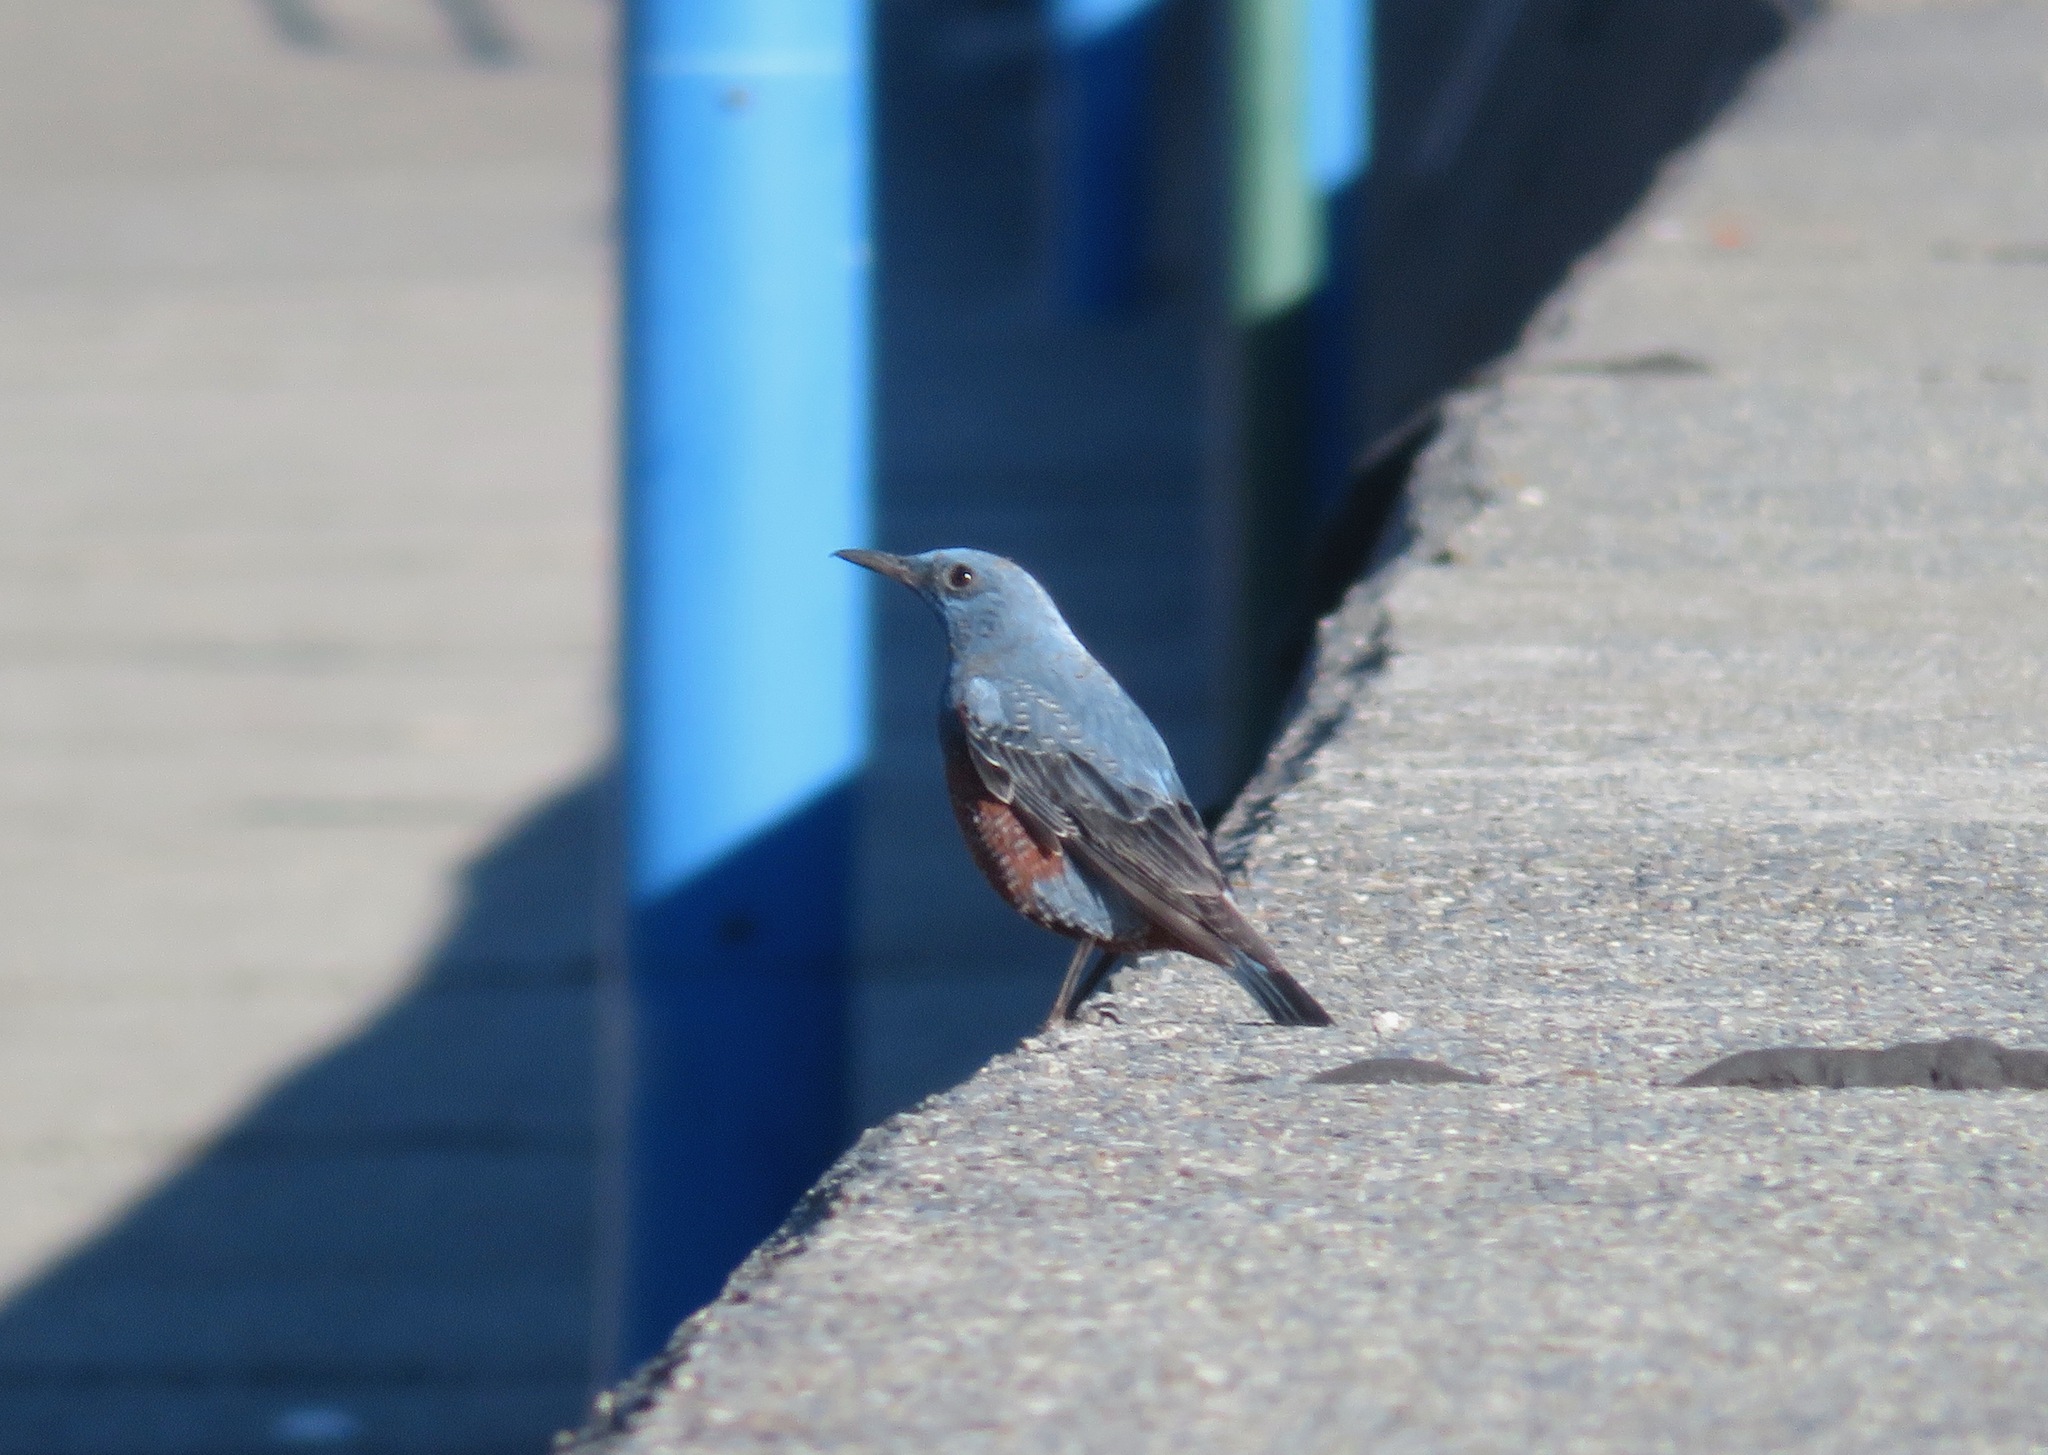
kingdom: Animalia
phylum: Chordata
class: Aves
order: Passeriformes
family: Muscicapidae
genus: Monticola
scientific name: Monticola solitarius
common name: Blue rock thrush
